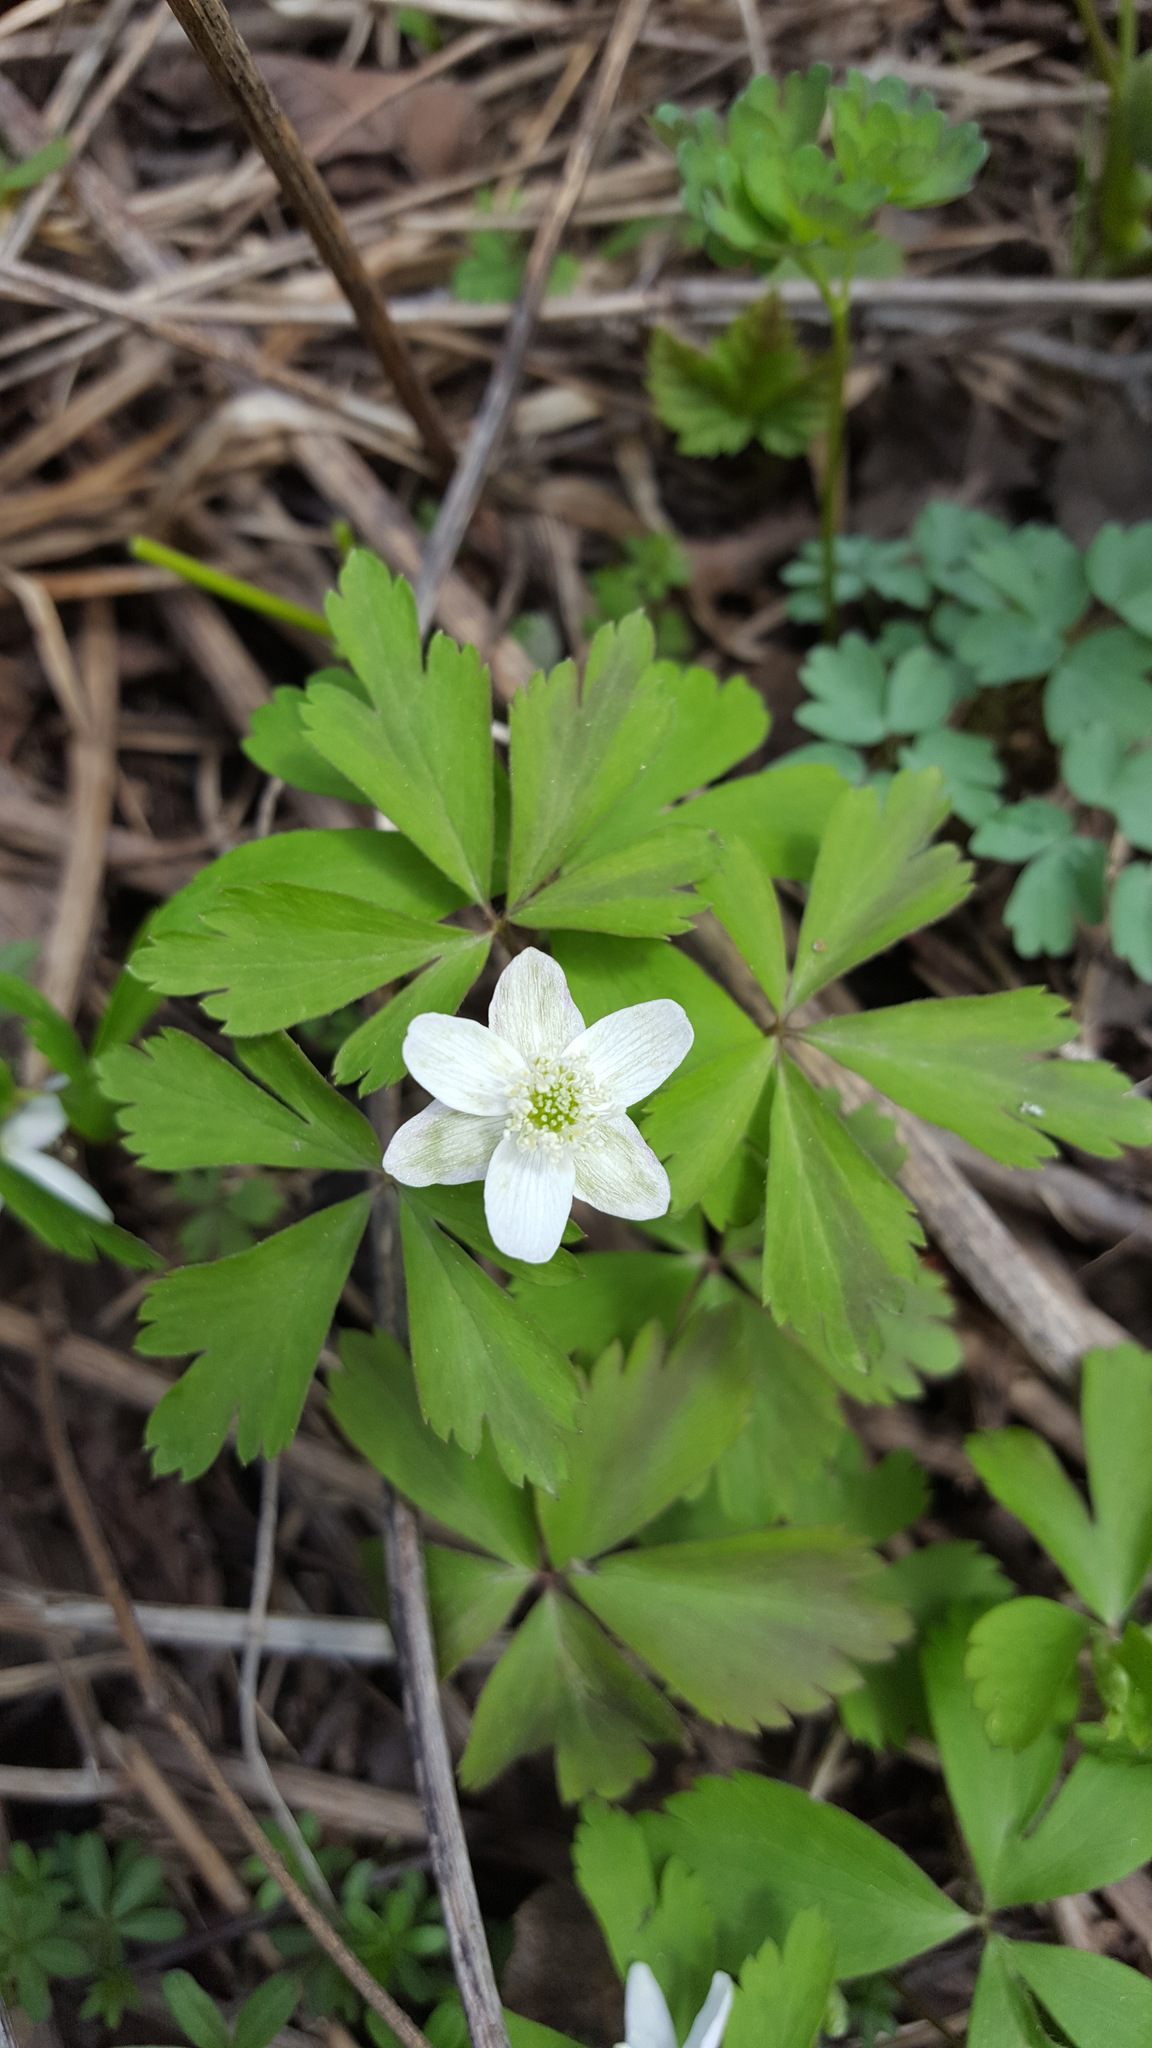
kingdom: Plantae
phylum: Tracheophyta
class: Magnoliopsida
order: Ranunculales
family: Ranunculaceae
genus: Anemone
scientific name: Anemone quinquefolia
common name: Wood anemone
